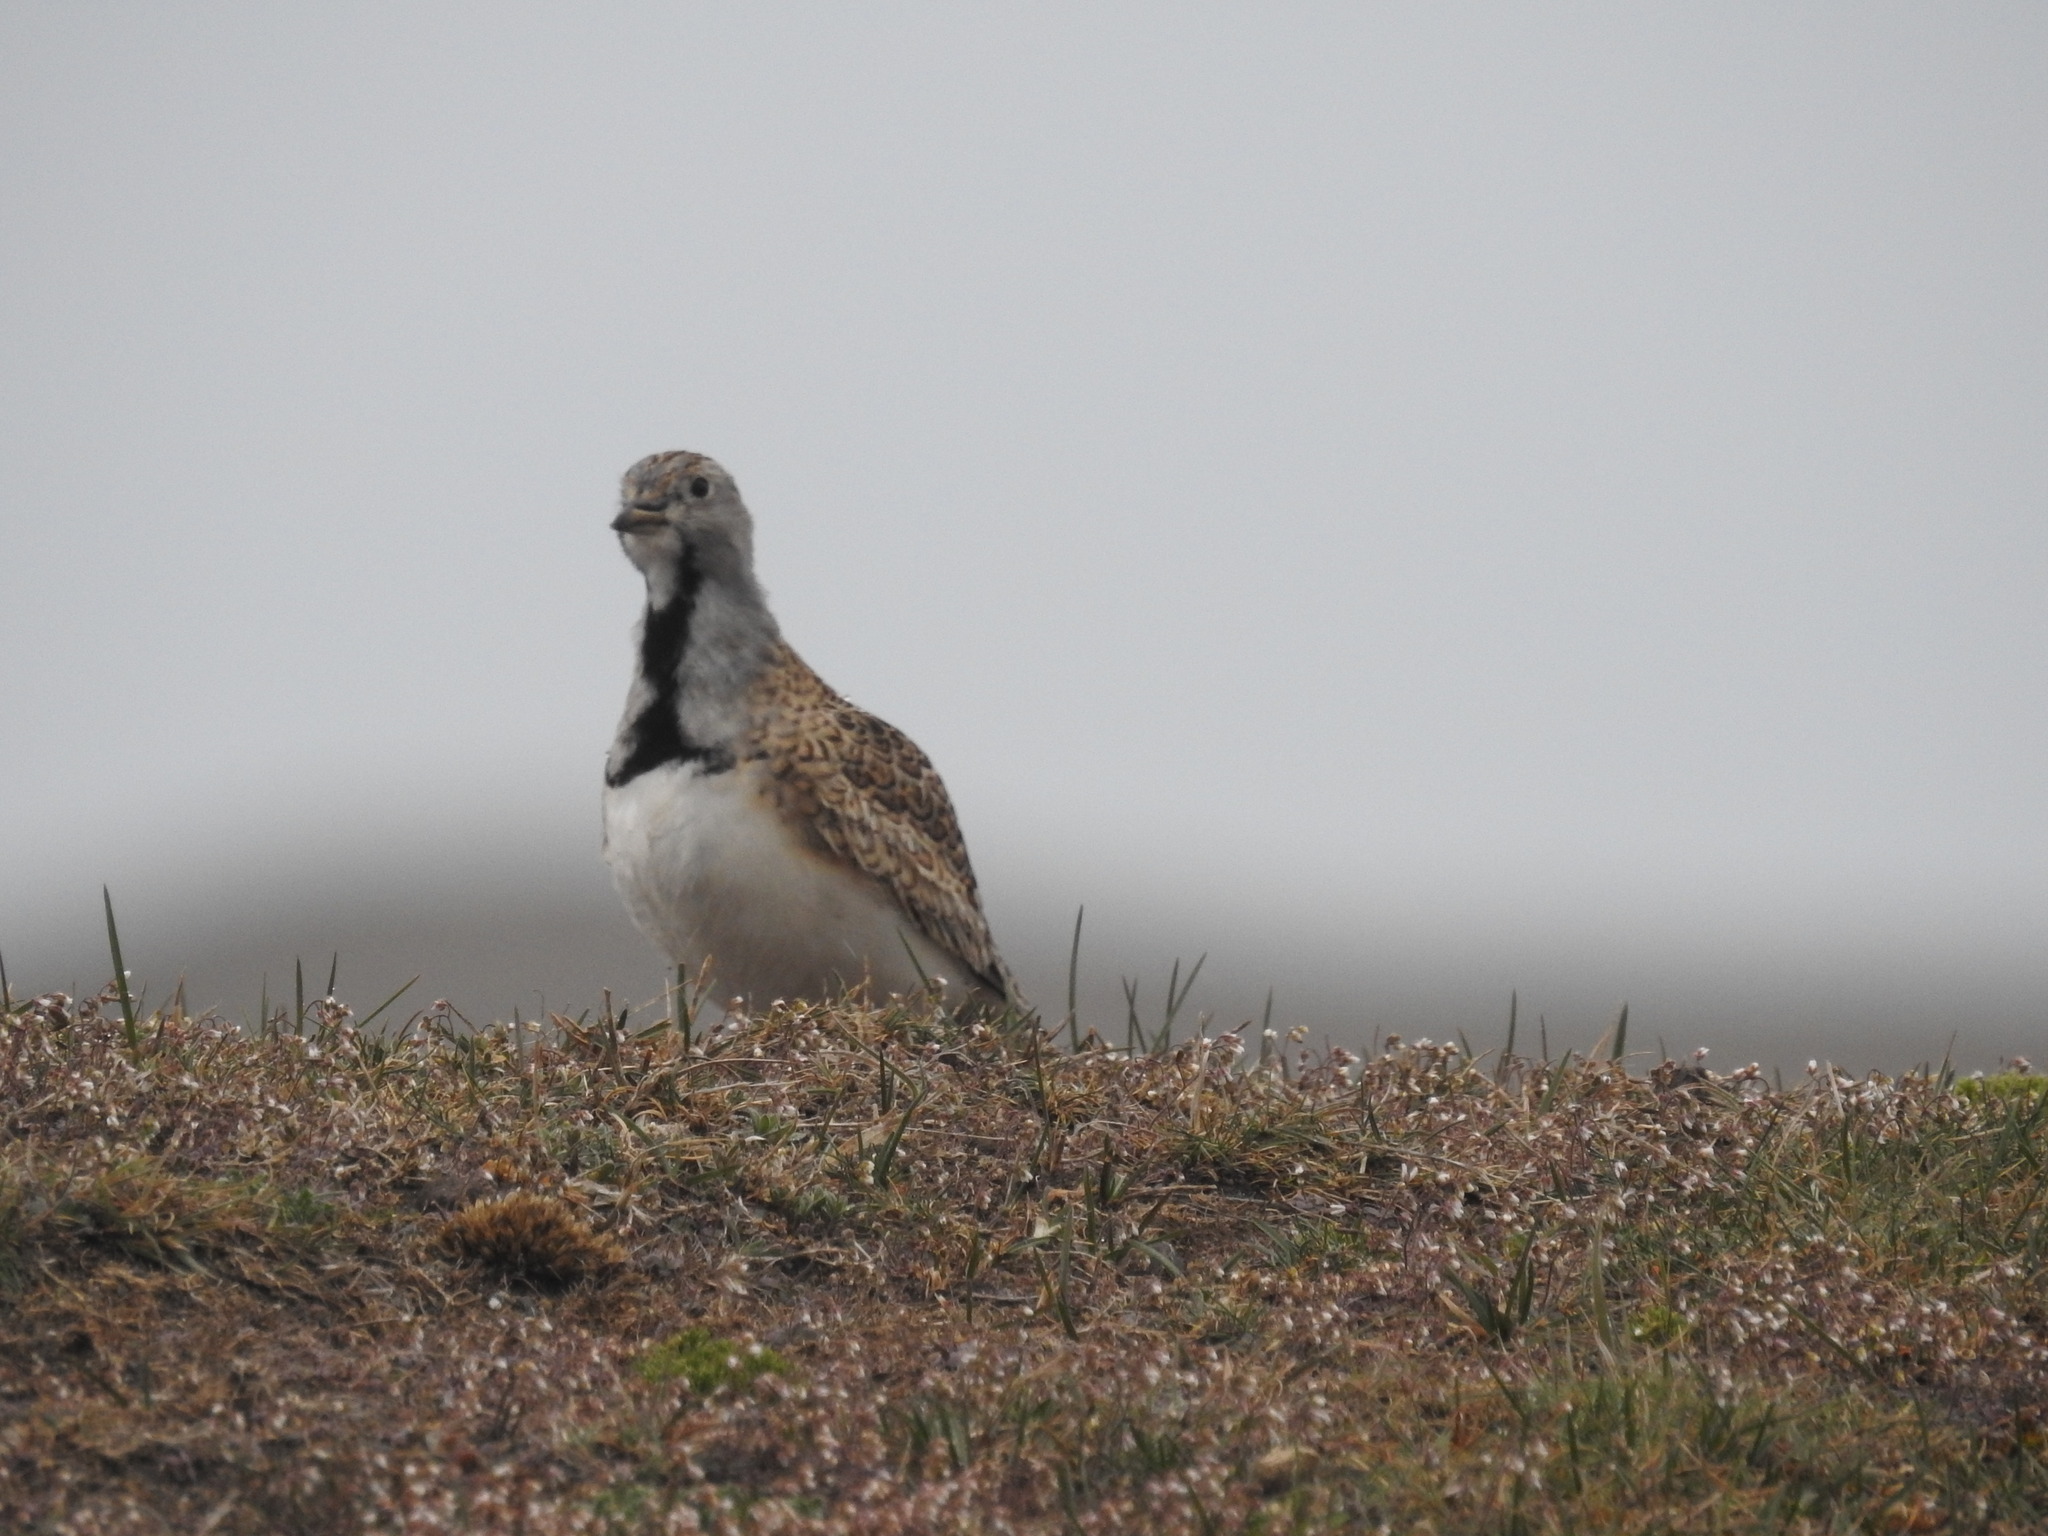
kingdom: Animalia
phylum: Chordata
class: Aves
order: Charadriiformes
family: Thinocoridae
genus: Thinocorus
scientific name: Thinocorus rumicivorus
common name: Least seedsnipe
